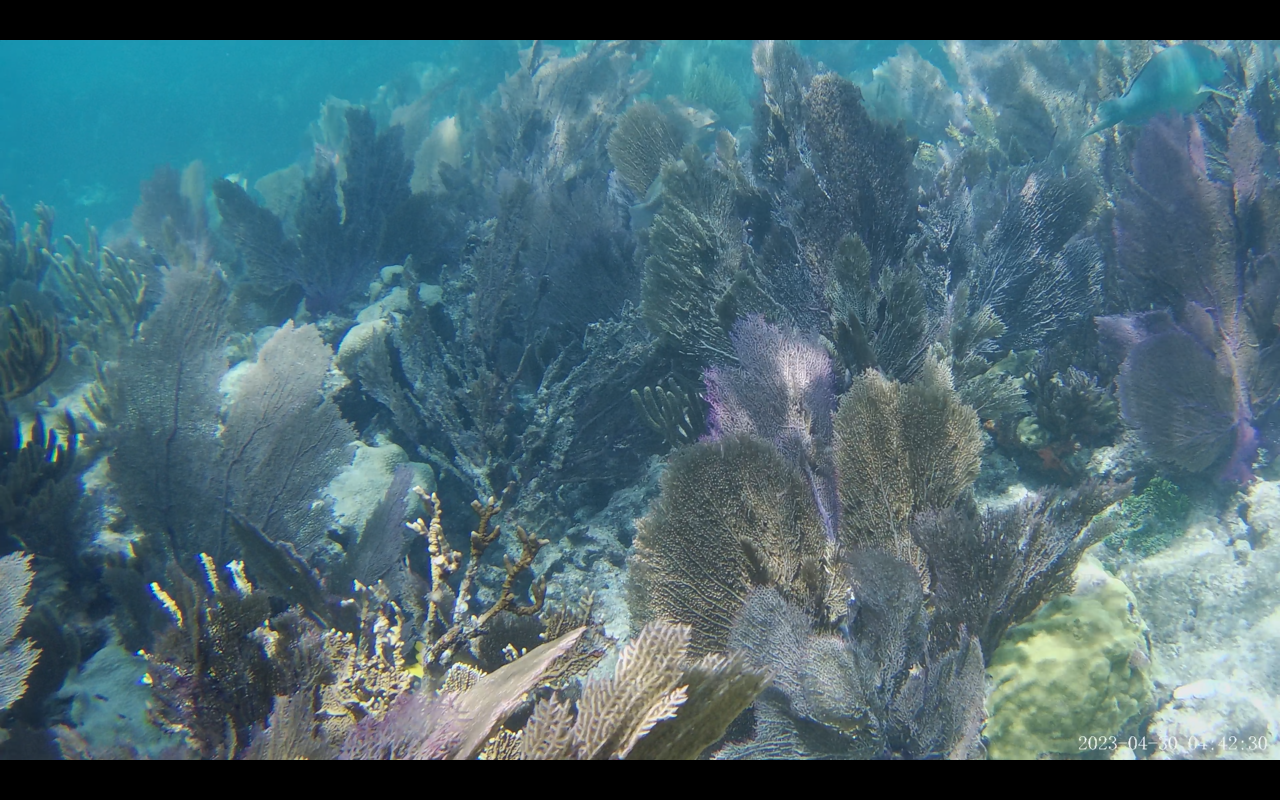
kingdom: Animalia
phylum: Chordata
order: Perciformes
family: Scaridae
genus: Sparisoma
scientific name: Sparisoma rubripinne
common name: Redfin parrotfish
